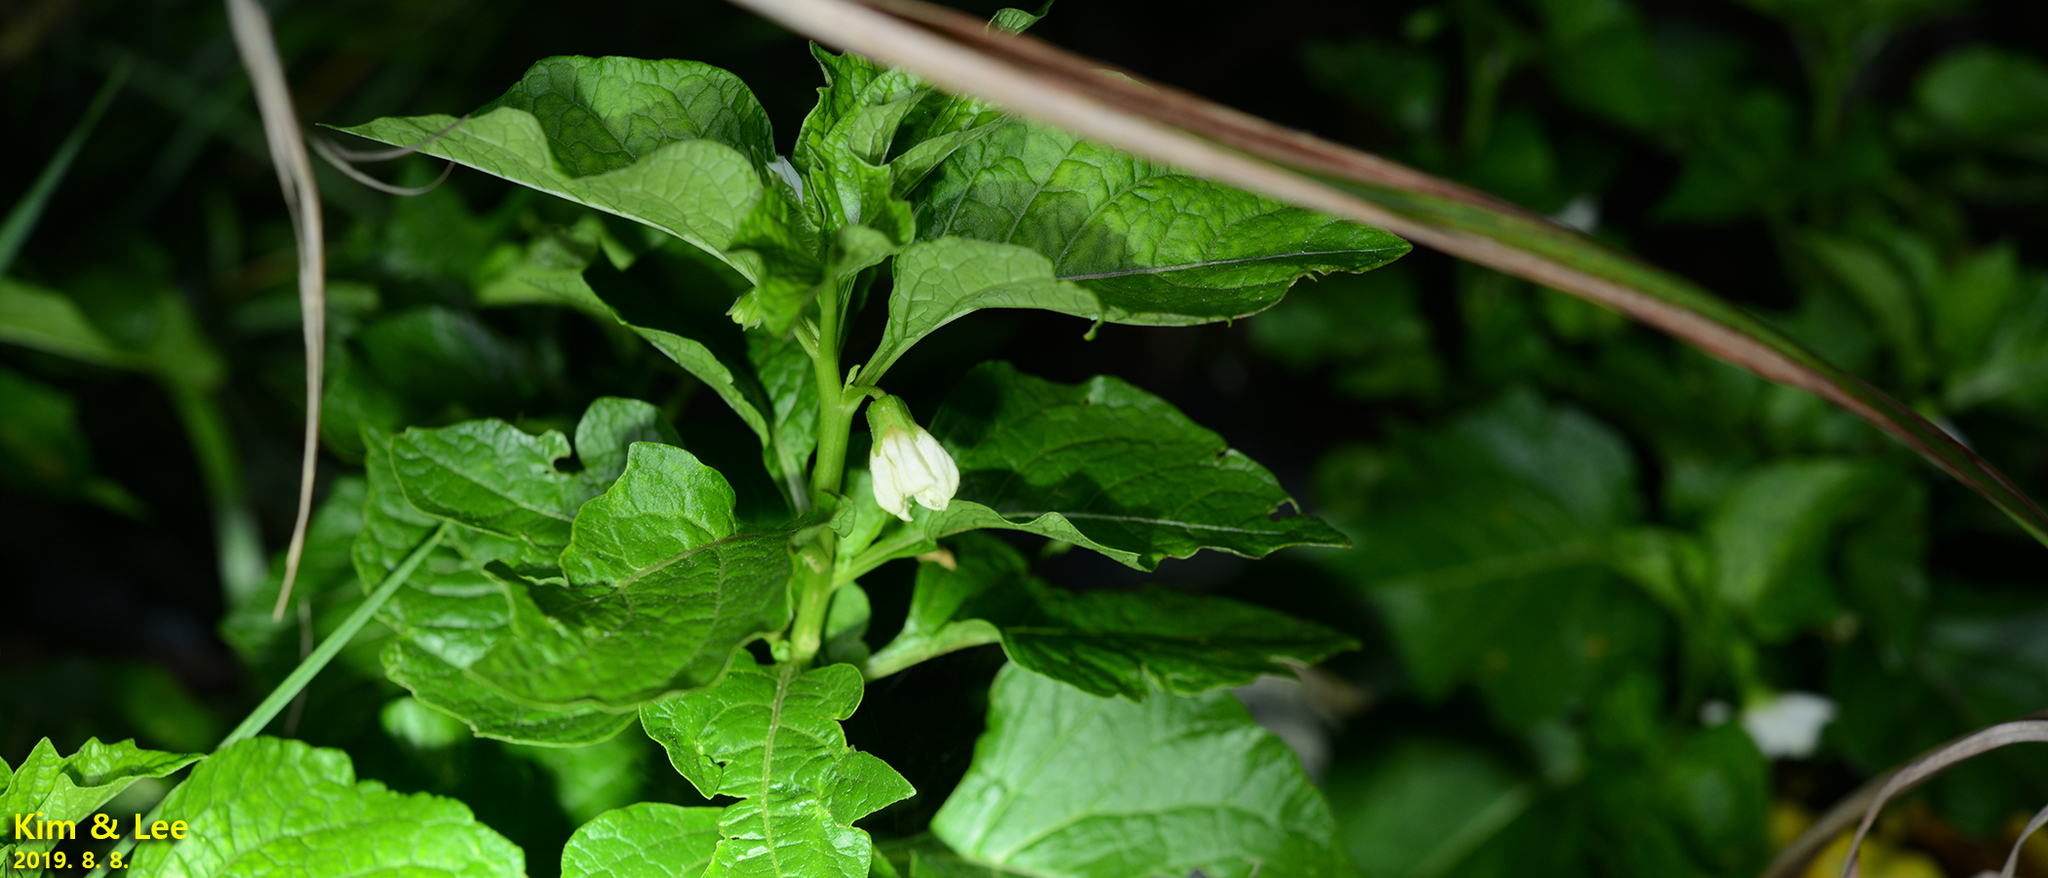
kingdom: Plantae
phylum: Tracheophyta
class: Magnoliopsida
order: Solanales
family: Solanaceae
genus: Alkekengi
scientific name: Alkekengi officinarum
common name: Japanese-lantern
